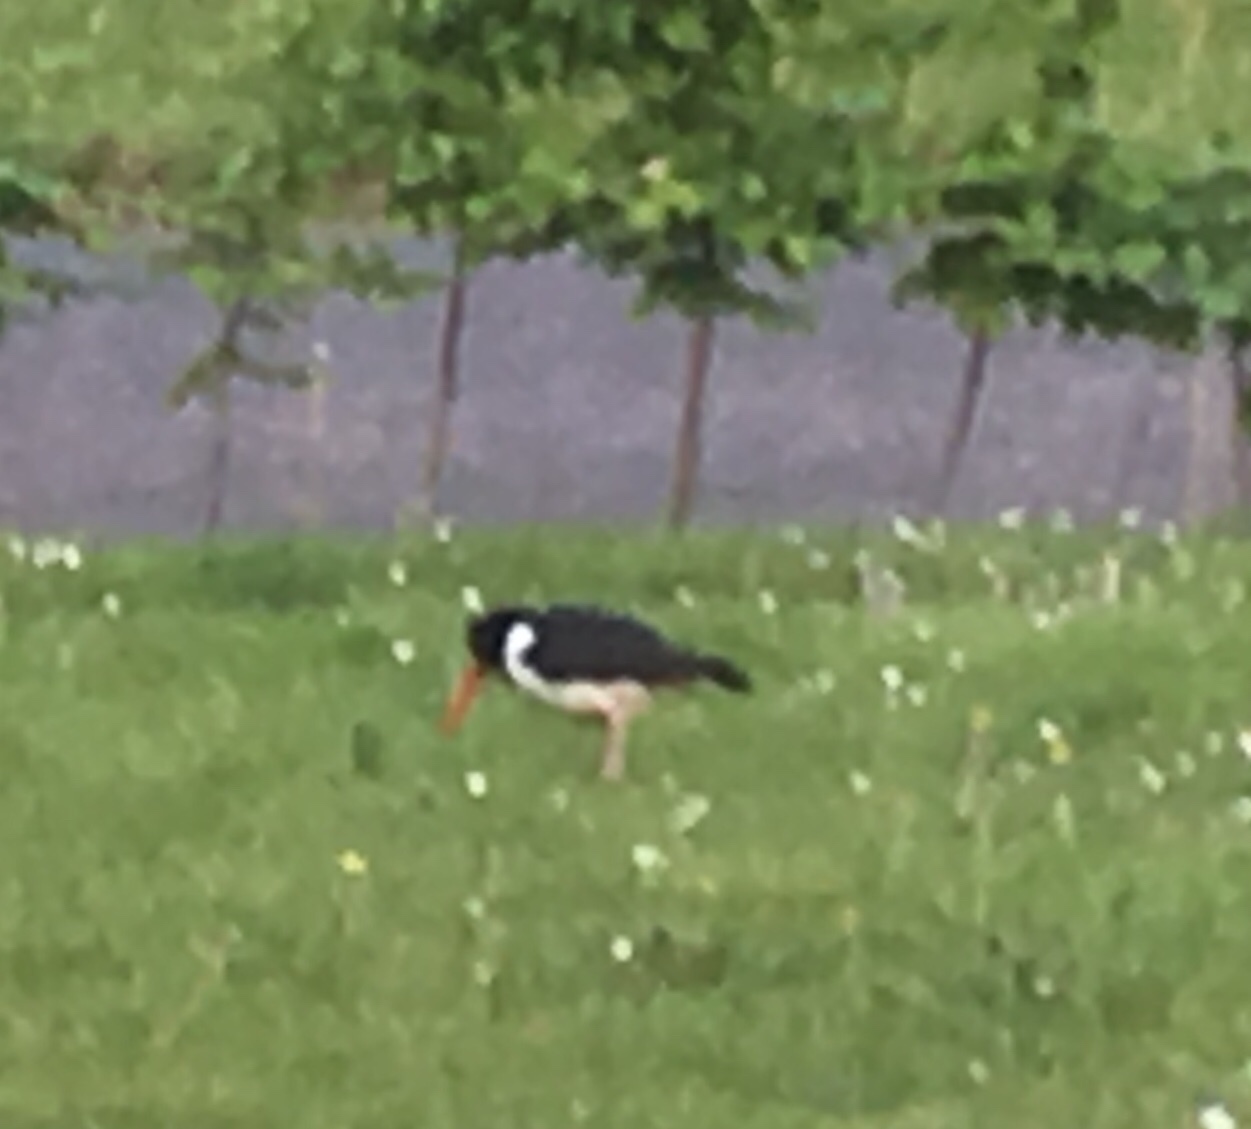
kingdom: Animalia
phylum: Chordata
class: Aves
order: Charadriiformes
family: Haematopodidae
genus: Haematopus
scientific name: Haematopus ostralegus
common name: Eurasian oystercatcher
